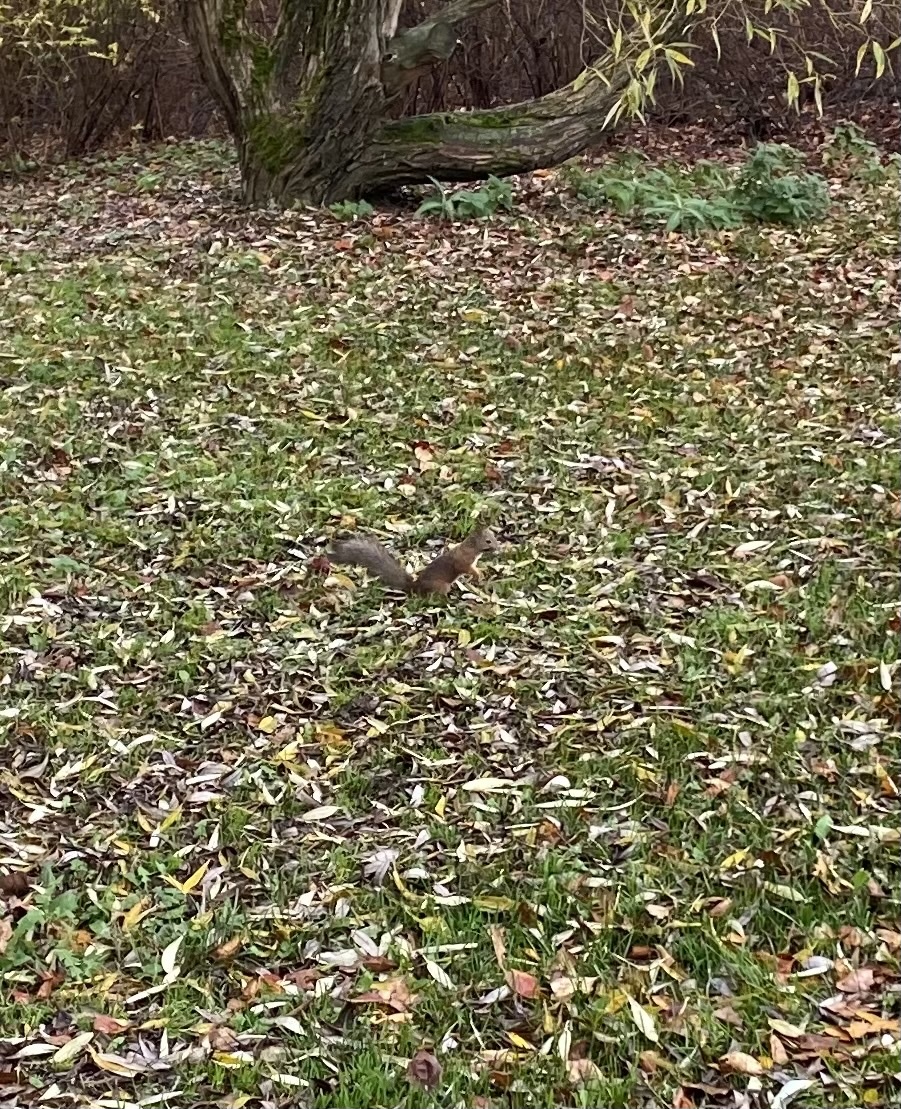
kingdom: Animalia
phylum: Chordata
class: Mammalia
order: Rodentia
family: Sciuridae
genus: Sciurus
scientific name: Sciurus vulgaris
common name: Eurasian red squirrel
